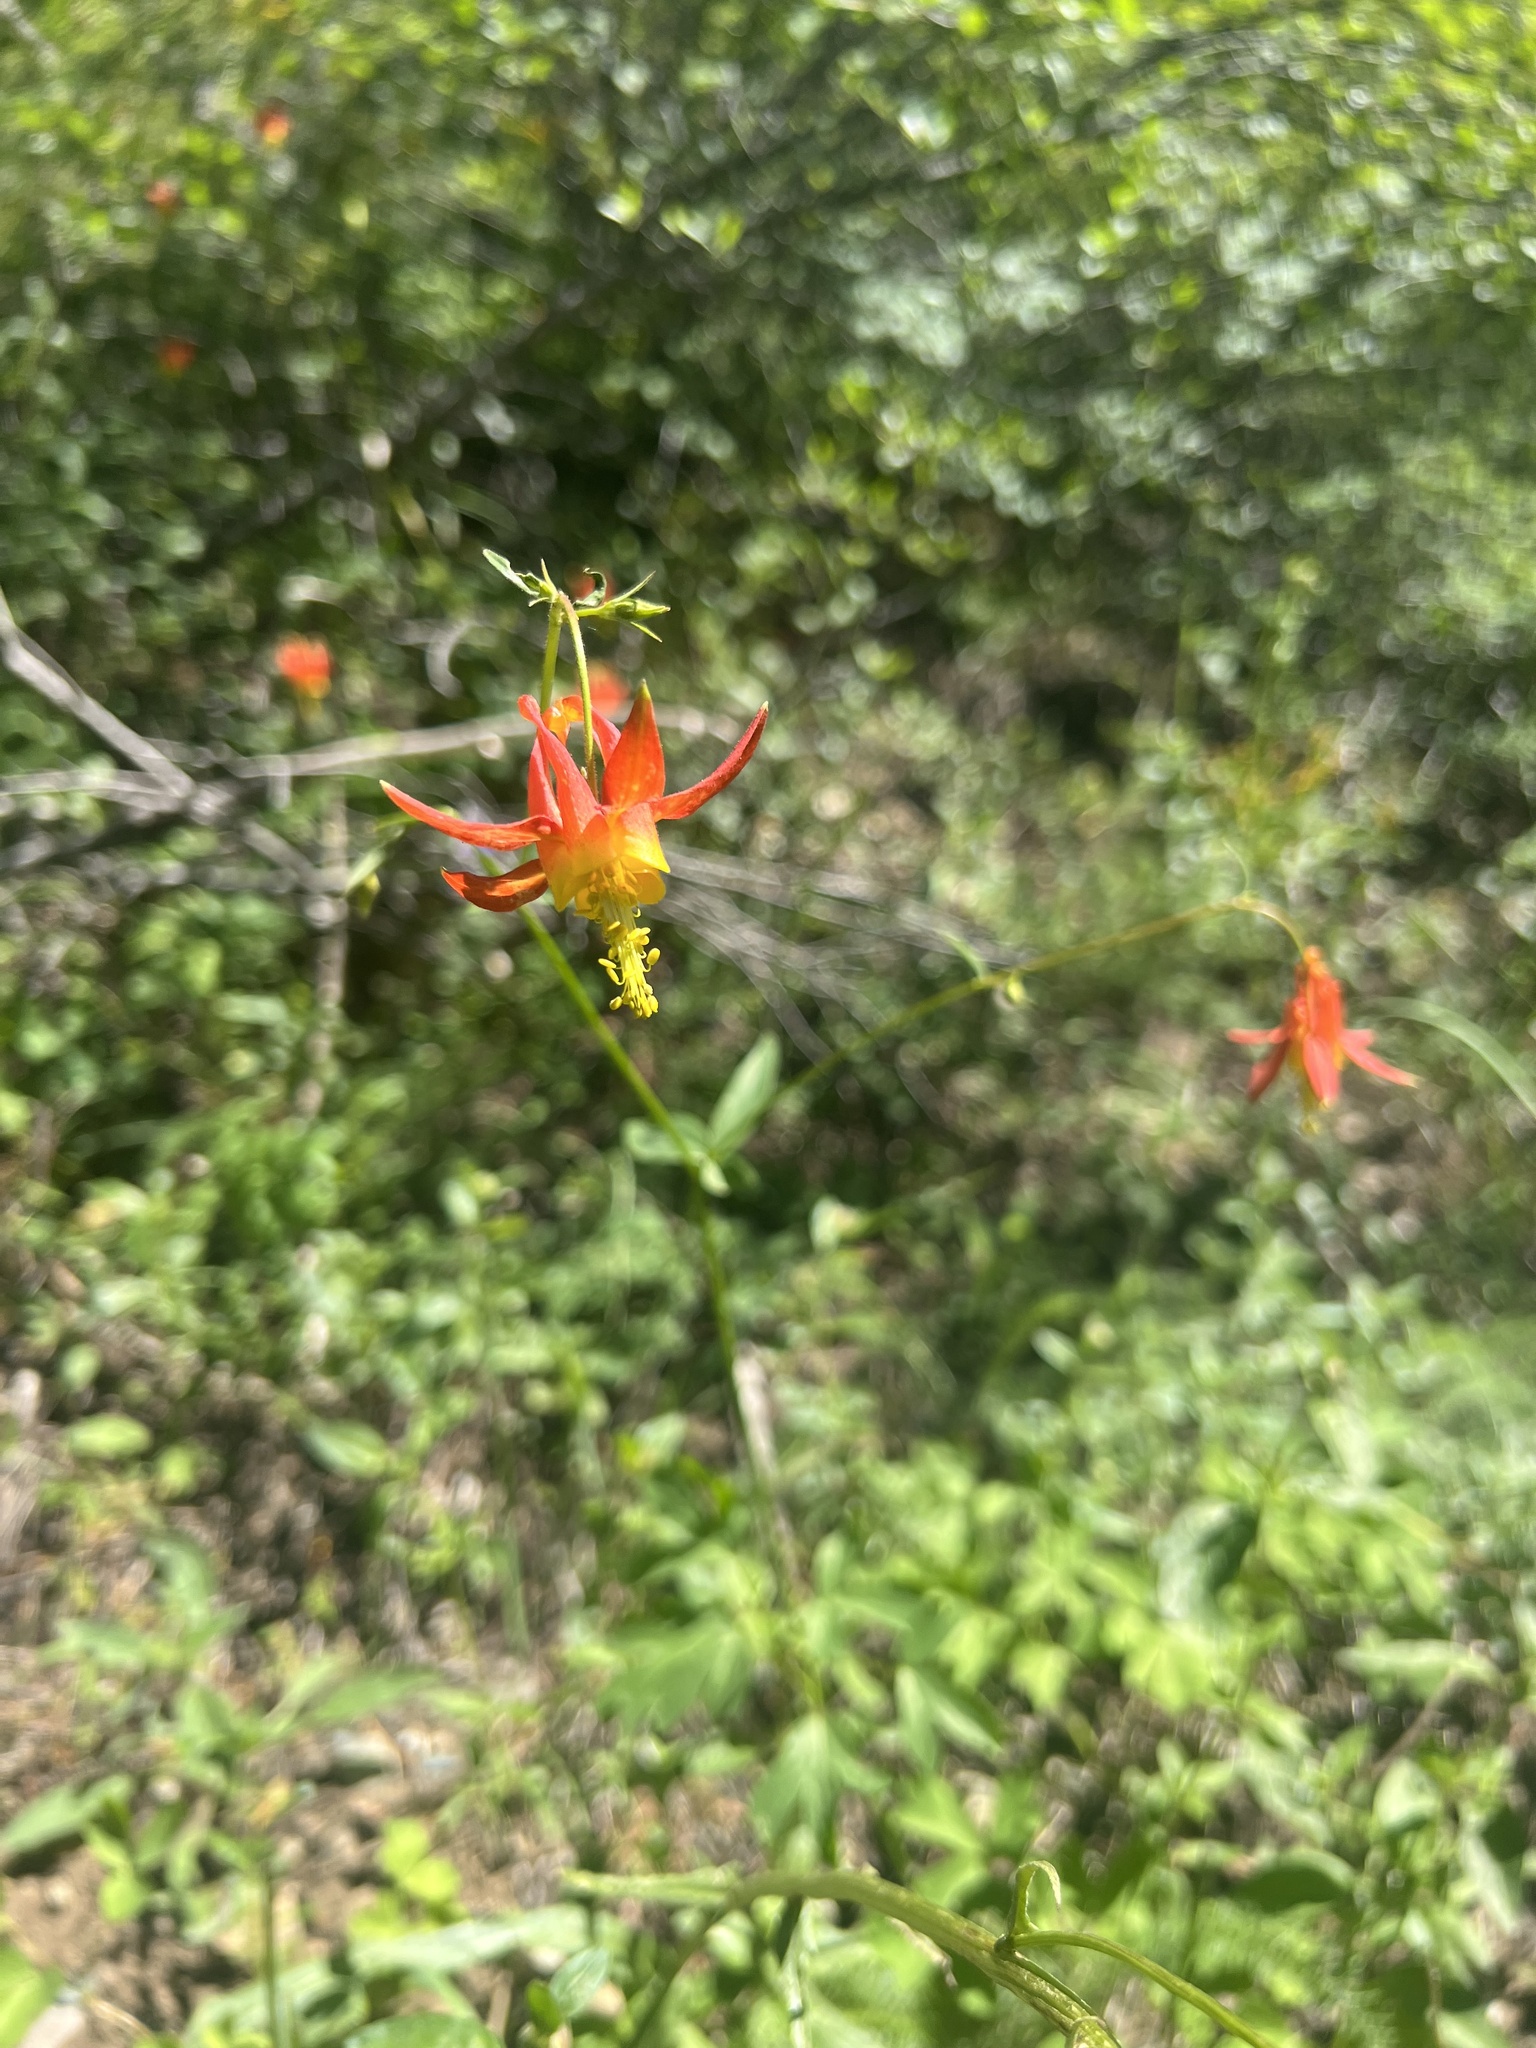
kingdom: Plantae
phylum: Tracheophyta
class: Magnoliopsida
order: Ranunculales
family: Ranunculaceae
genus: Aquilegia
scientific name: Aquilegia formosa
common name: Sitka columbine
